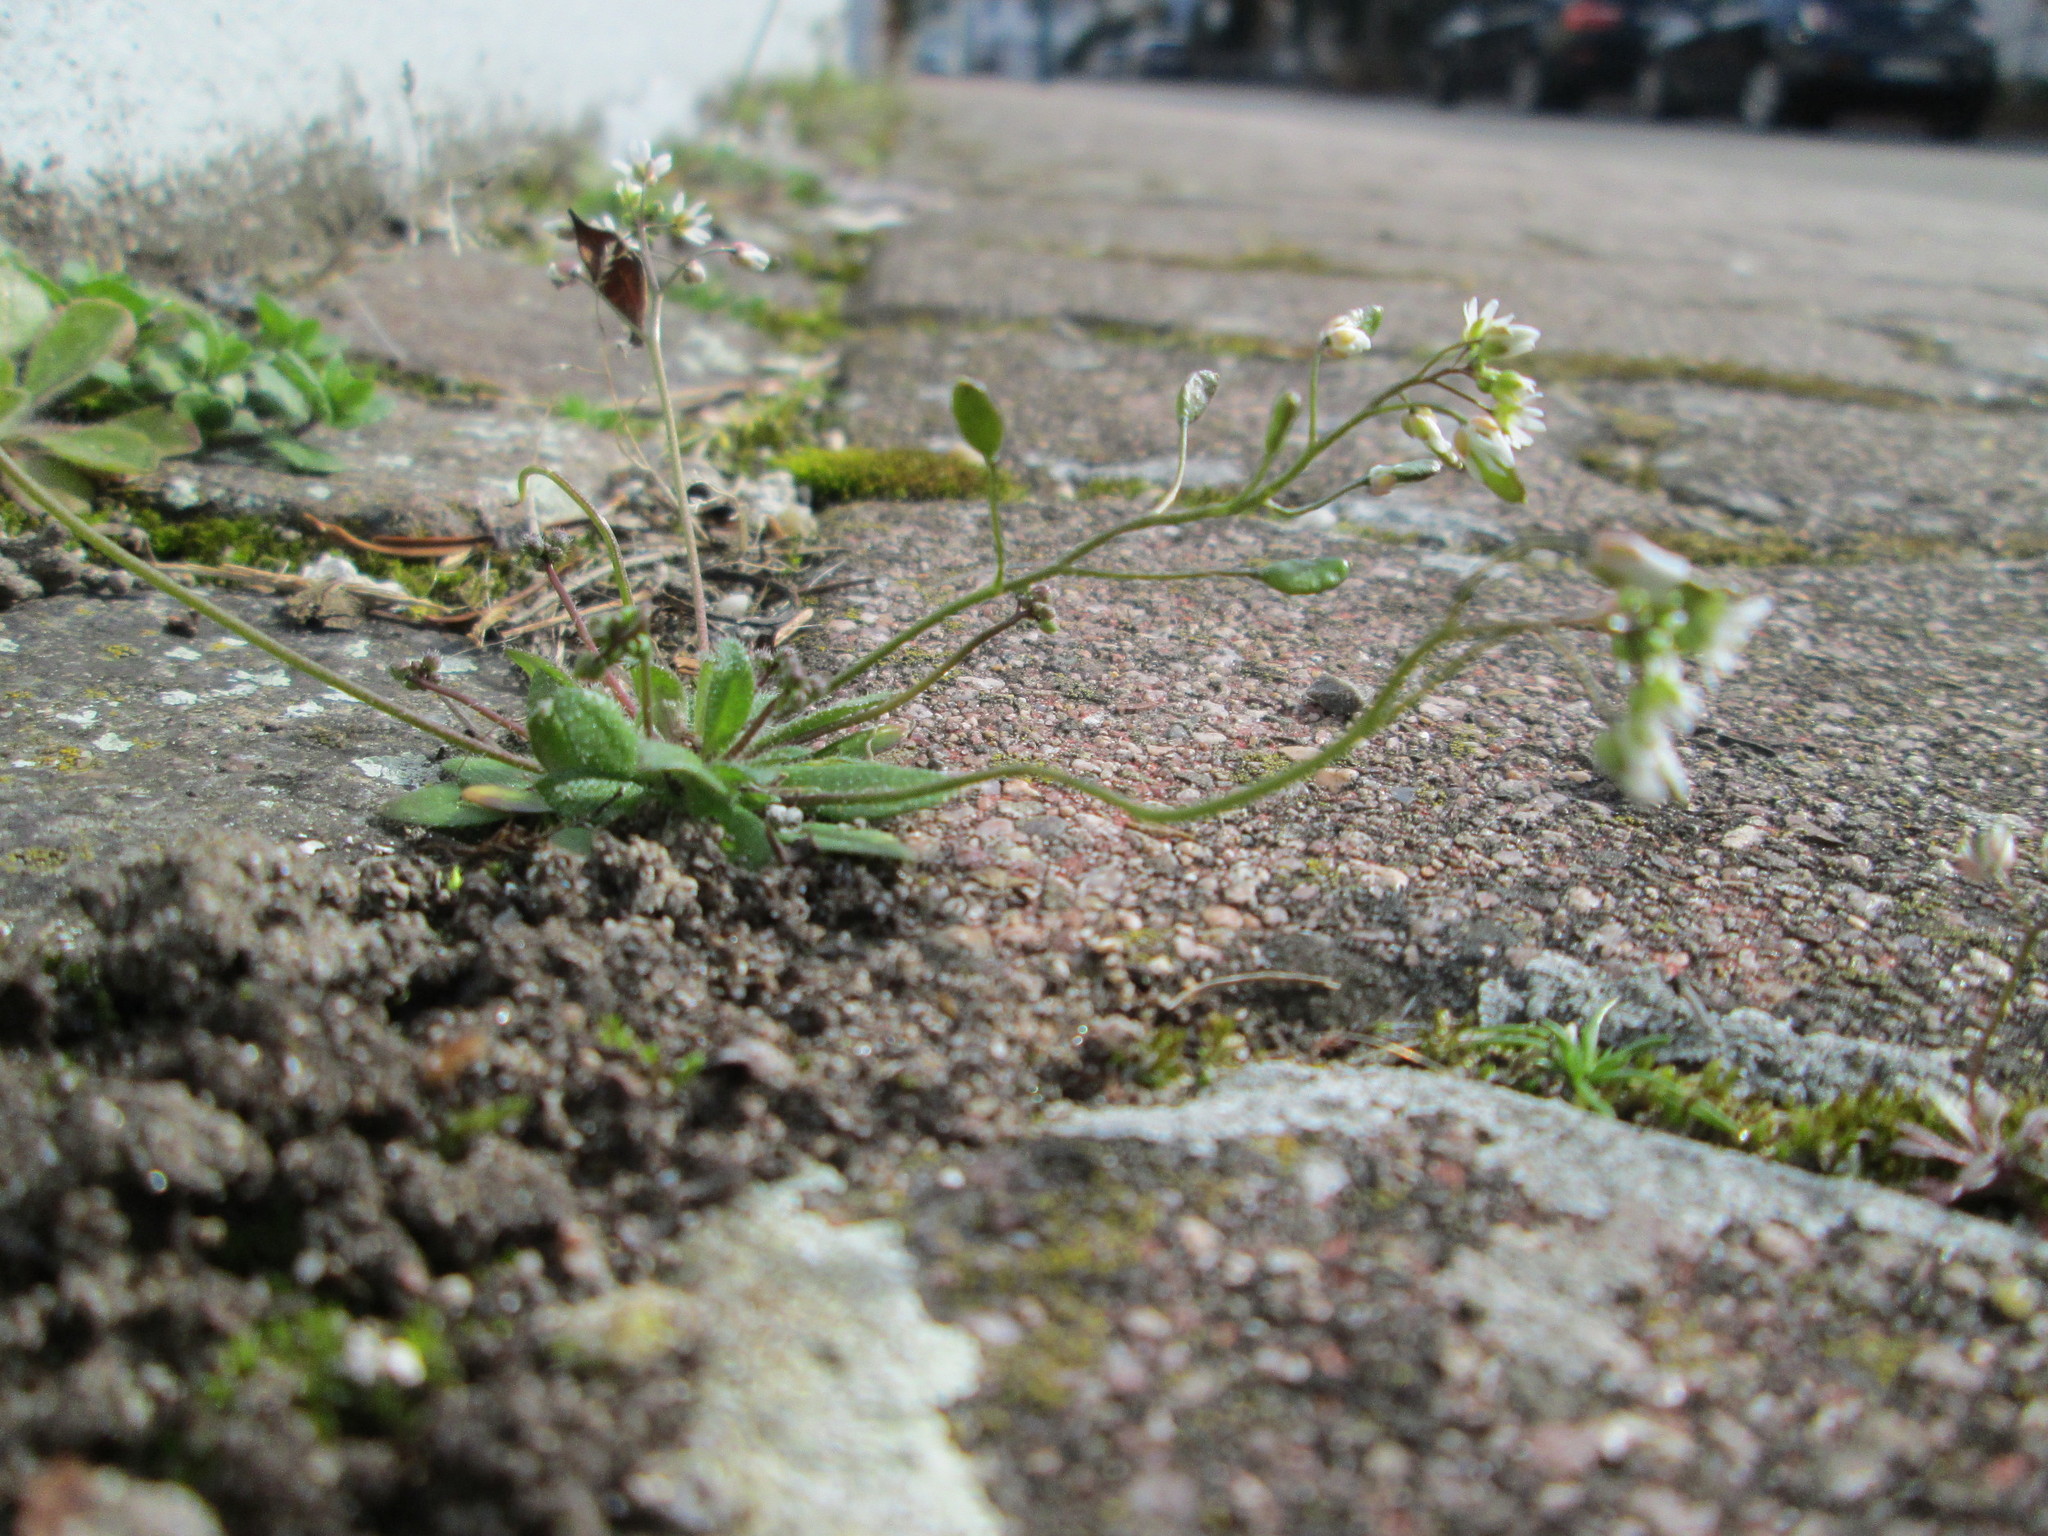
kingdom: Plantae
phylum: Tracheophyta
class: Magnoliopsida
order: Brassicales
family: Brassicaceae
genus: Draba
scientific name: Draba verna
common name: Spring draba
